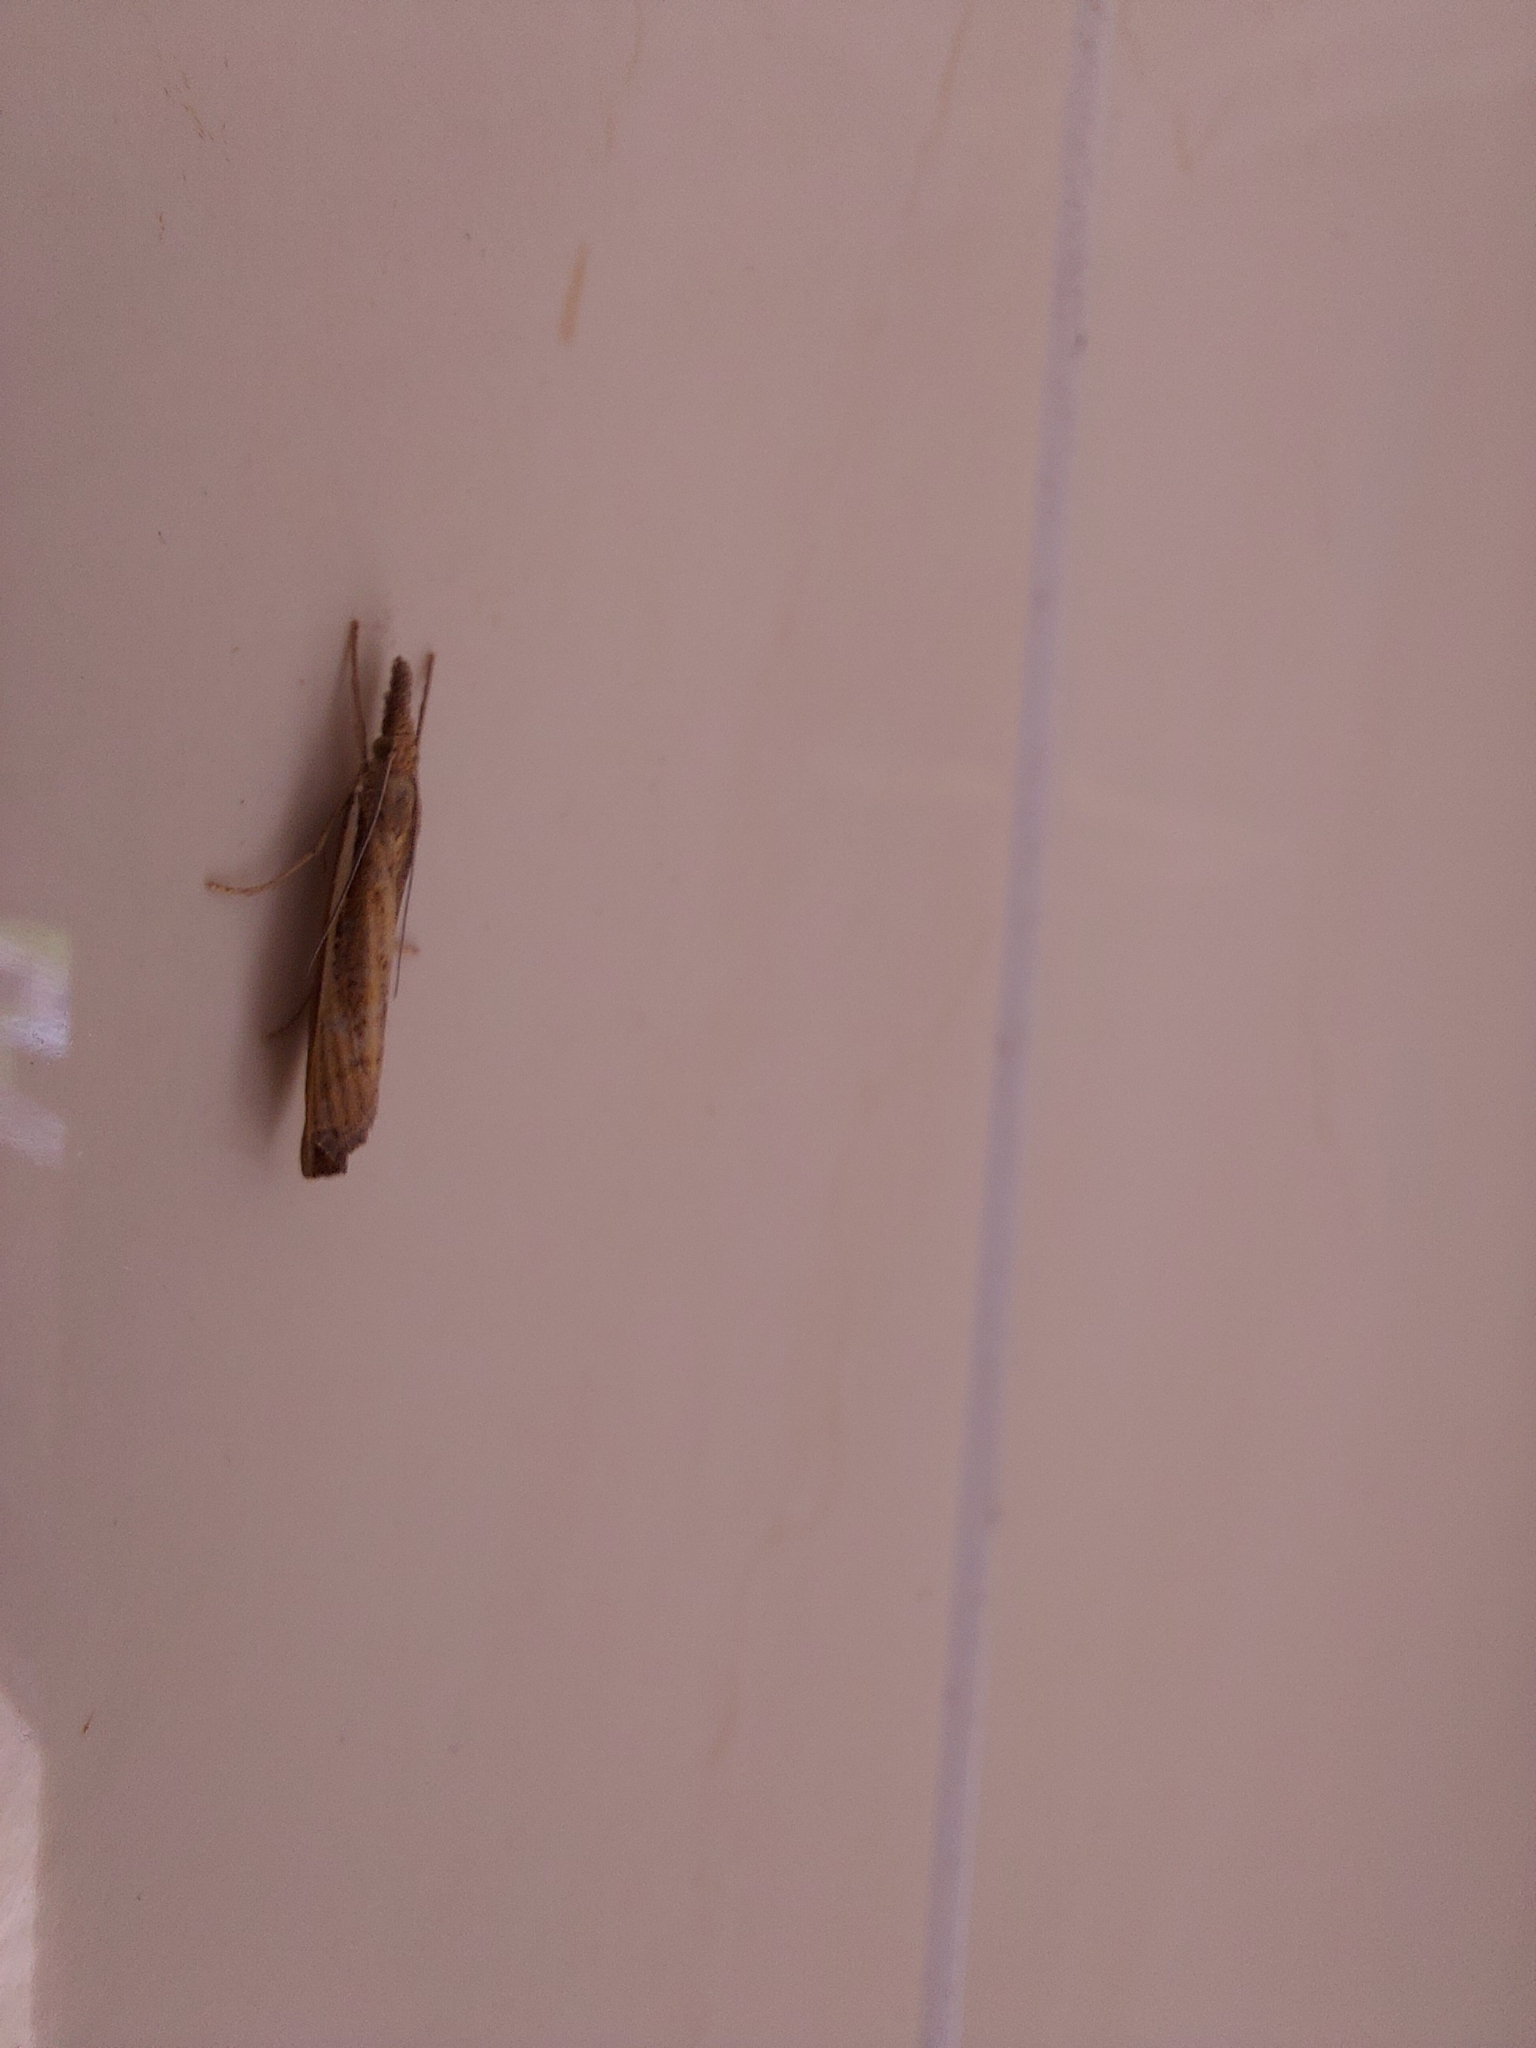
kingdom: Animalia
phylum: Arthropoda
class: Insecta
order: Lepidoptera
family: Crambidae
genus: Agriphila
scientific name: Agriphila tristellus
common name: Common grass-veneer
